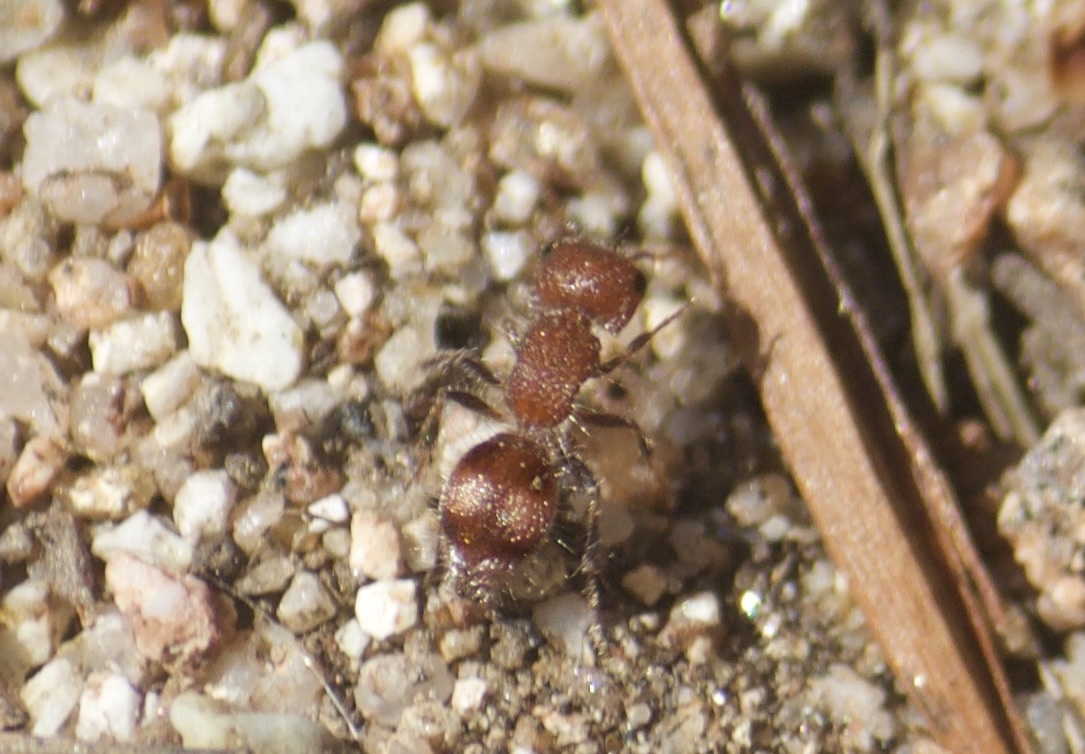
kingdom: Animalia
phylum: Arthropoda
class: Insecta
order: Hymenoptera
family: Mutillidae
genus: Pseudomethoca
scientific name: Pseudomethoca athamas
